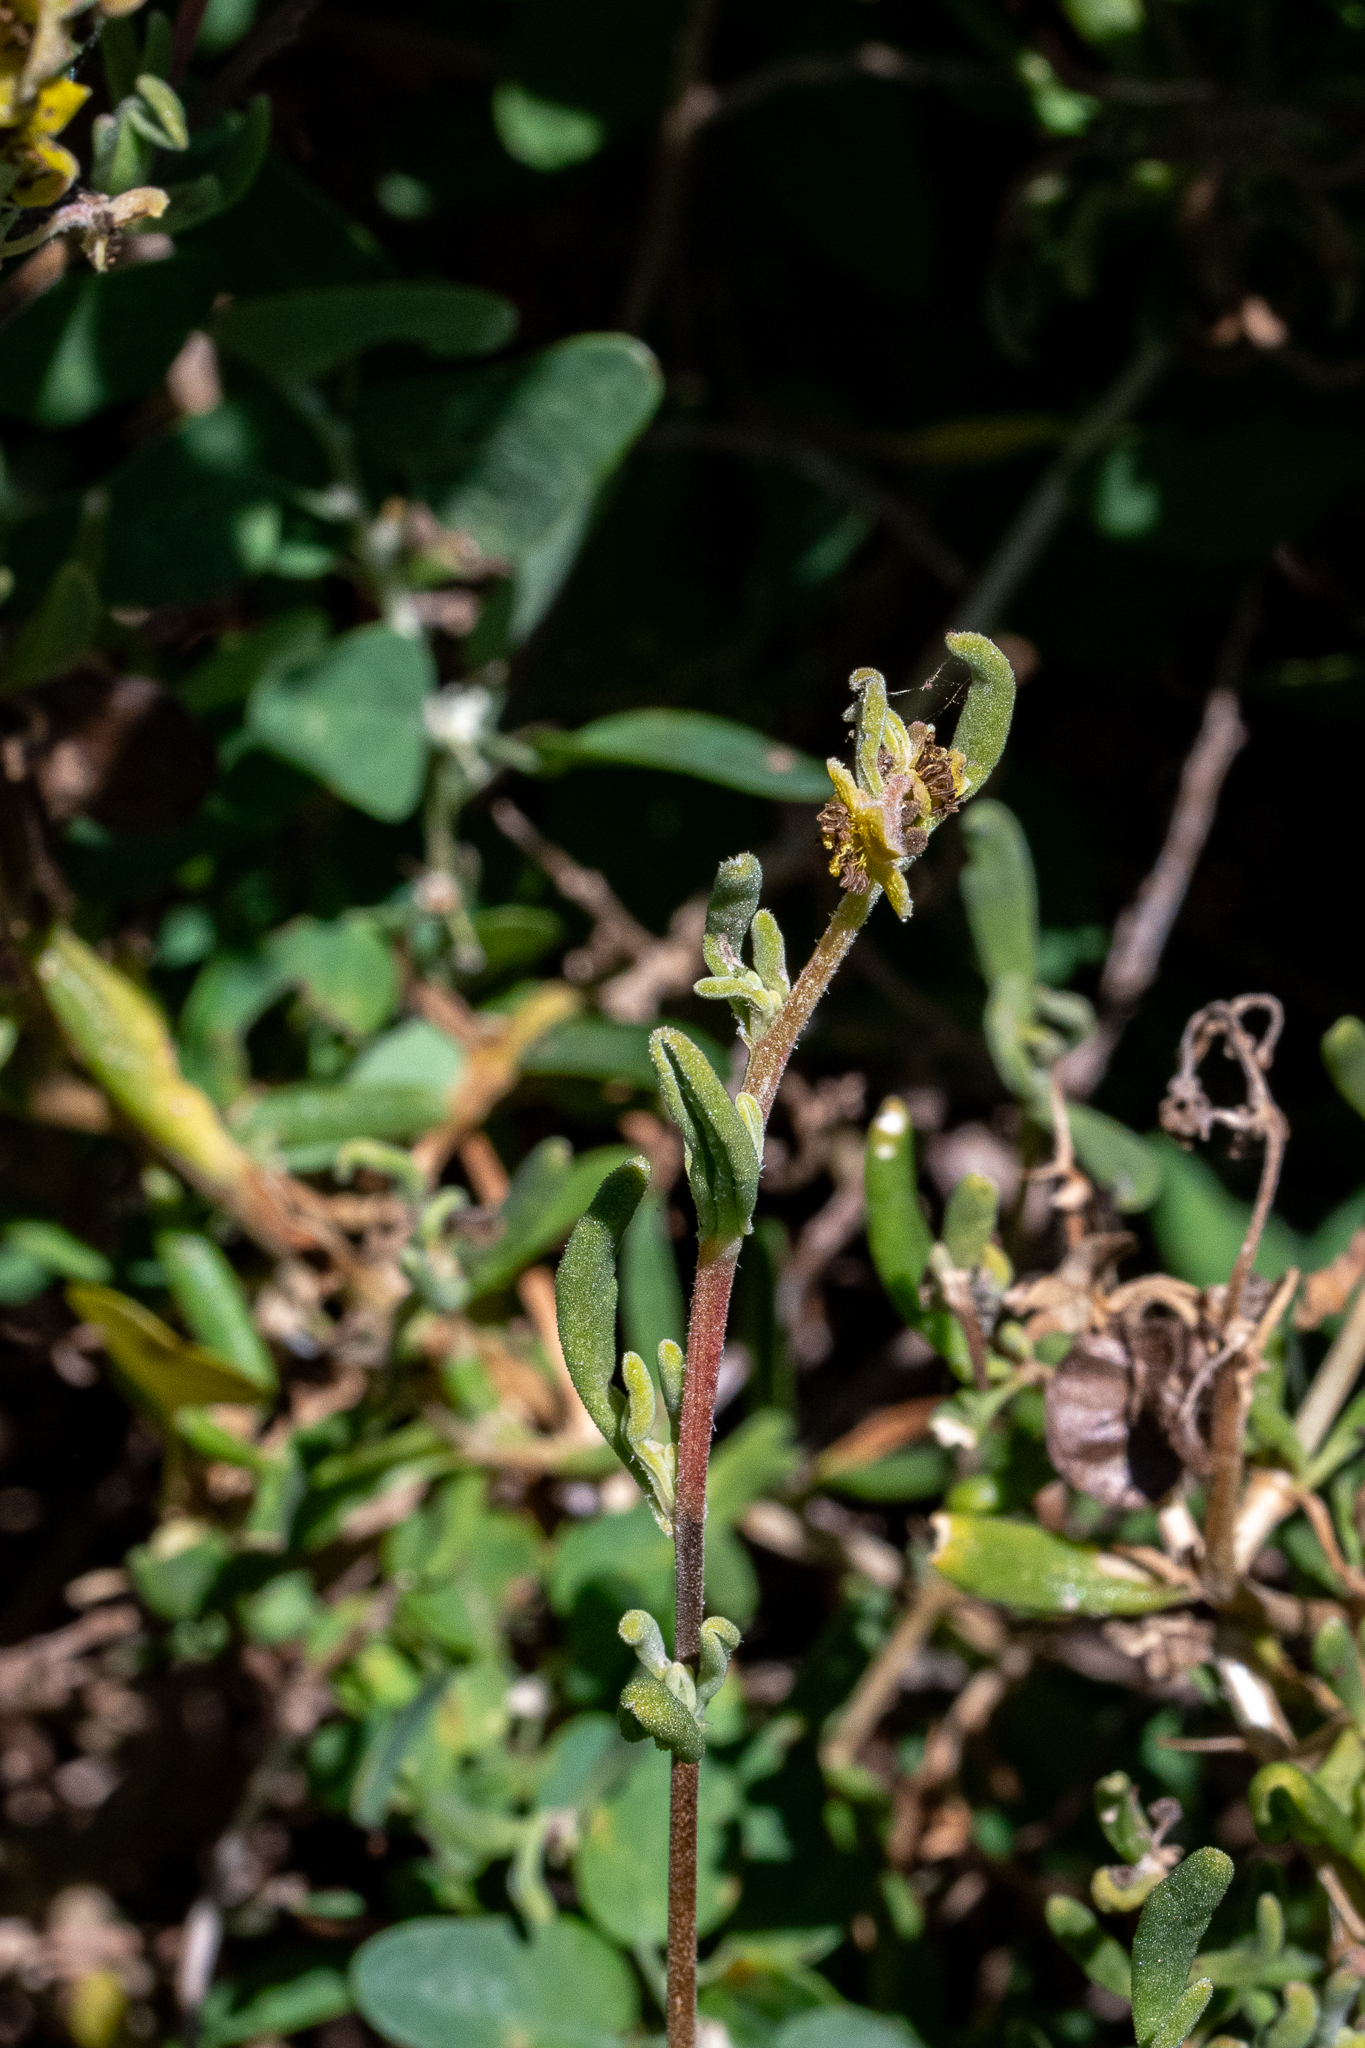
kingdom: Plantae
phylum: Tracheophyta
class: Magnoliopsida
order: Caryophyllales
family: Aizoaceae
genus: Tetragonia
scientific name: Tetragonia fruticosa
